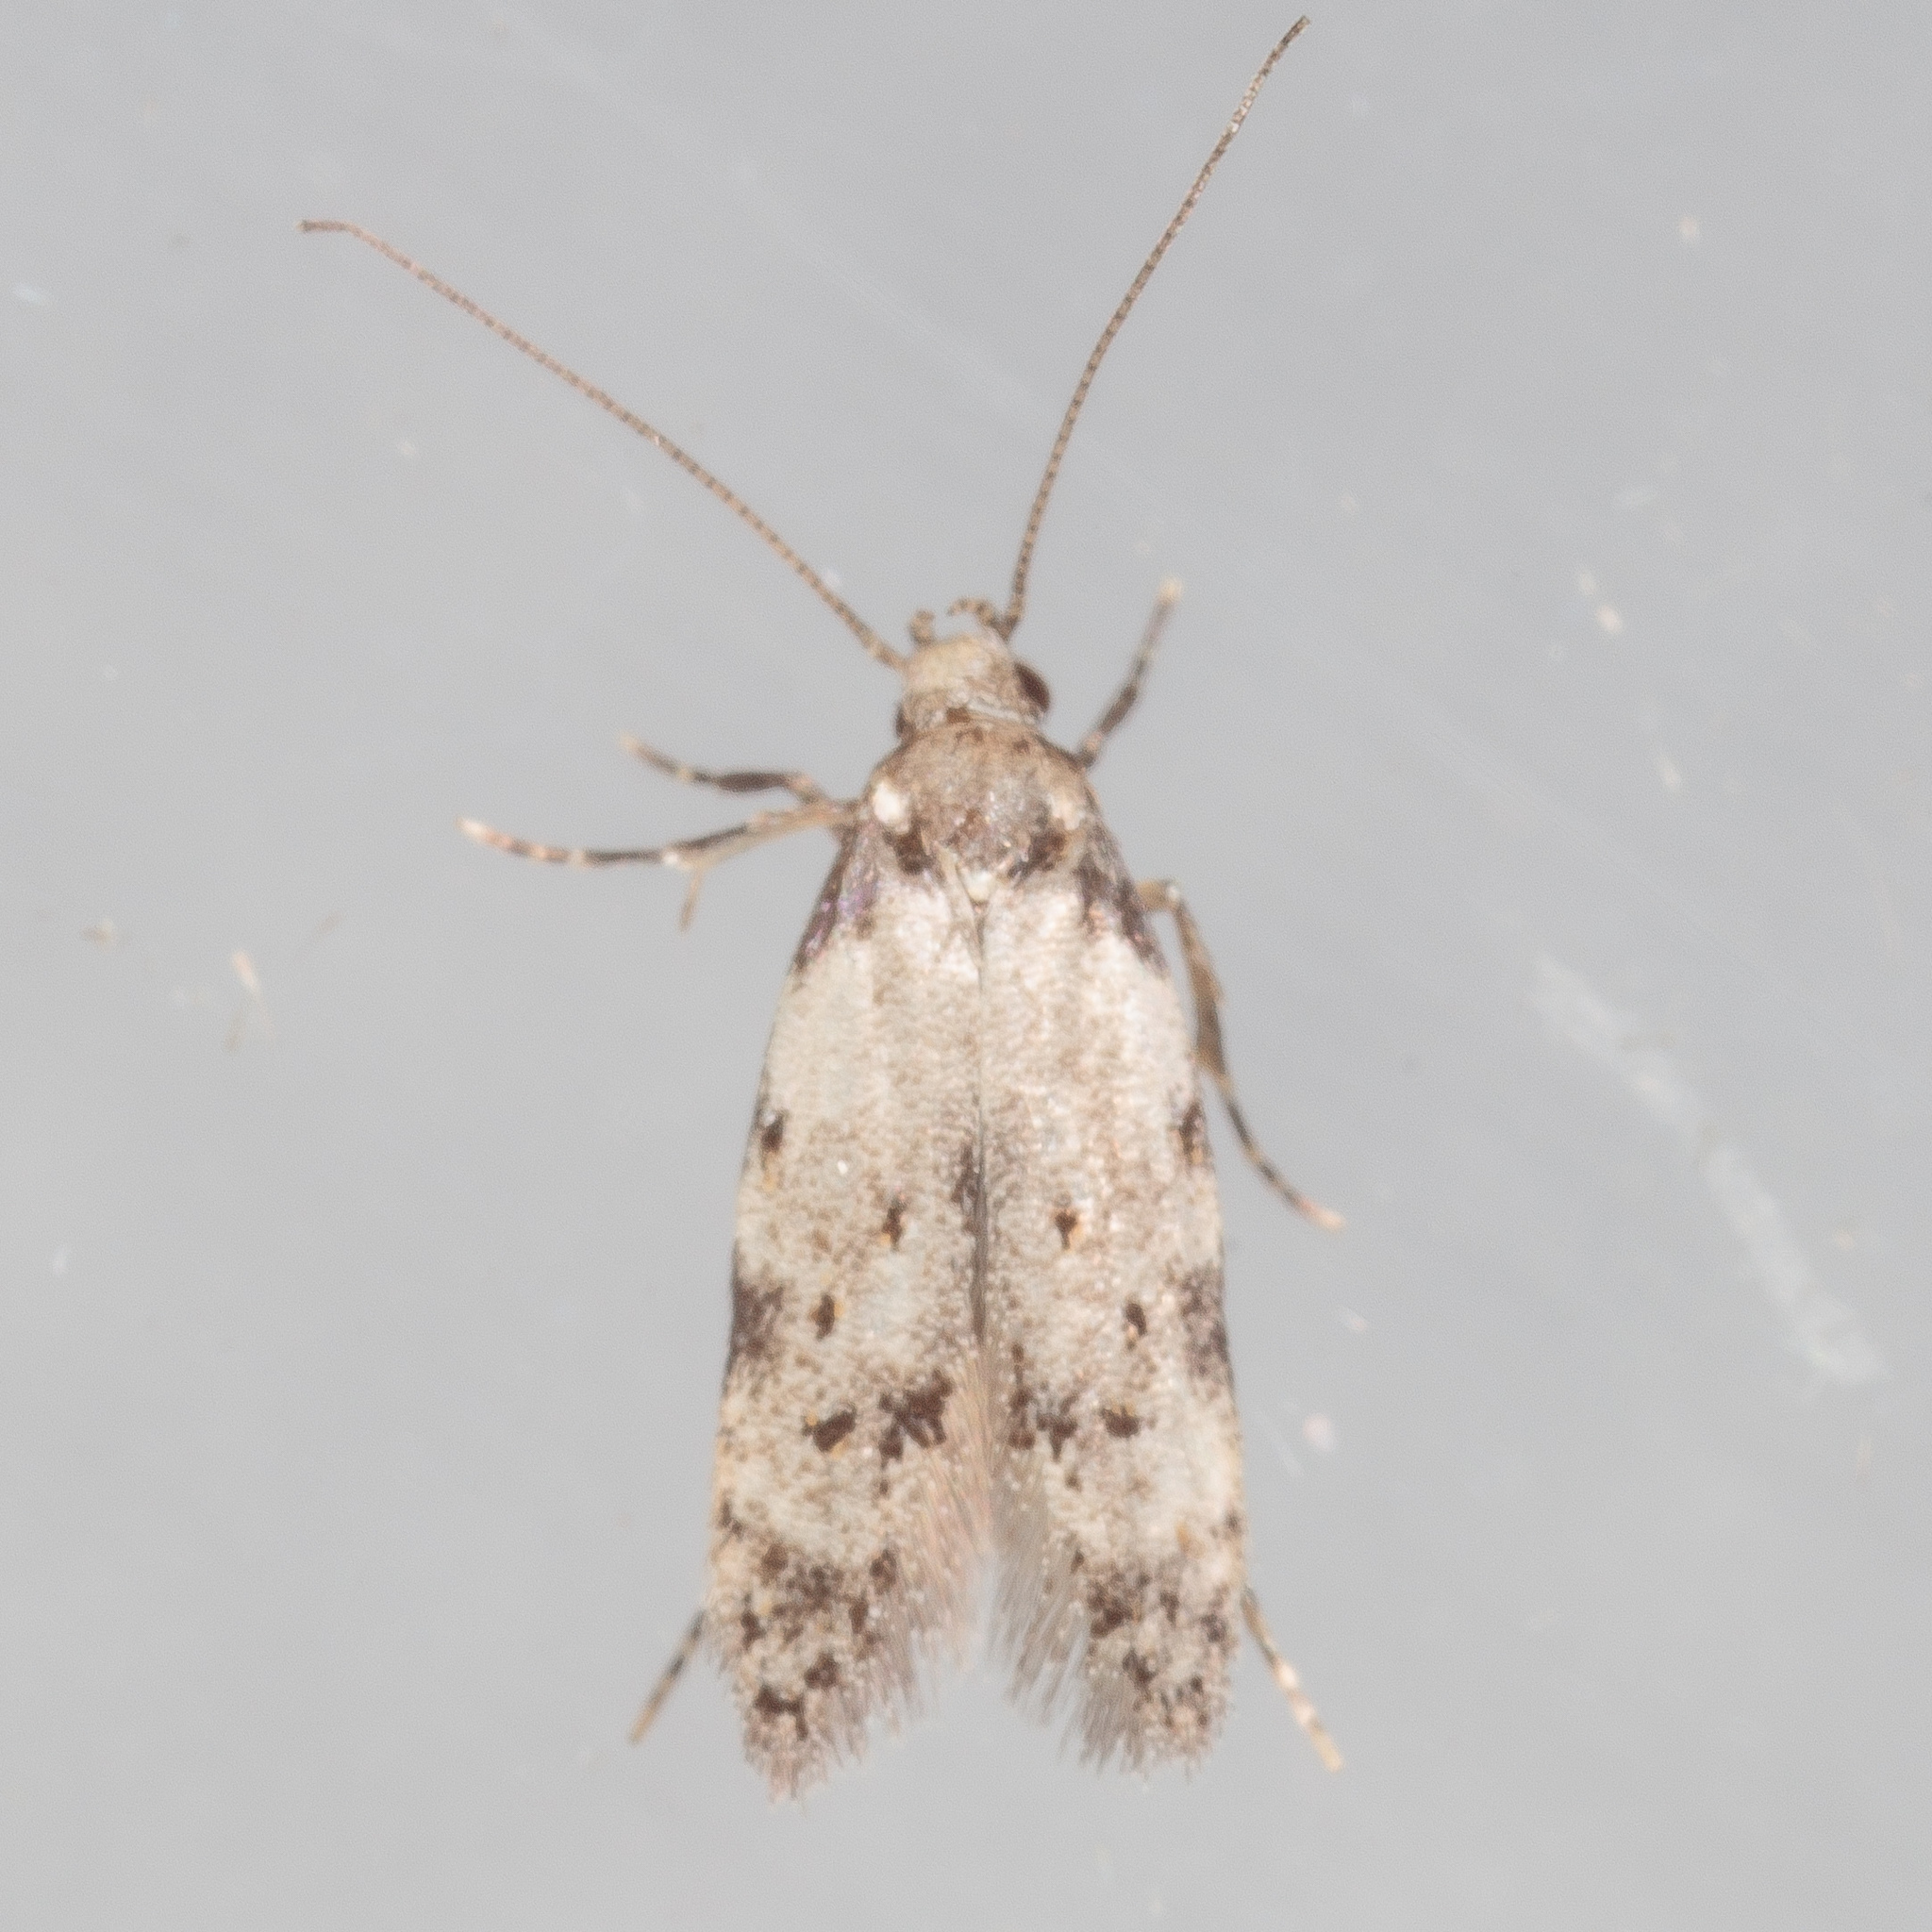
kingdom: Animalia
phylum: Arthropoda
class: Insecta
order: Lepidoptera
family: Autostichidae
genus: Taygete
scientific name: Taygete attributella
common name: Triangle-marked twirler moth
